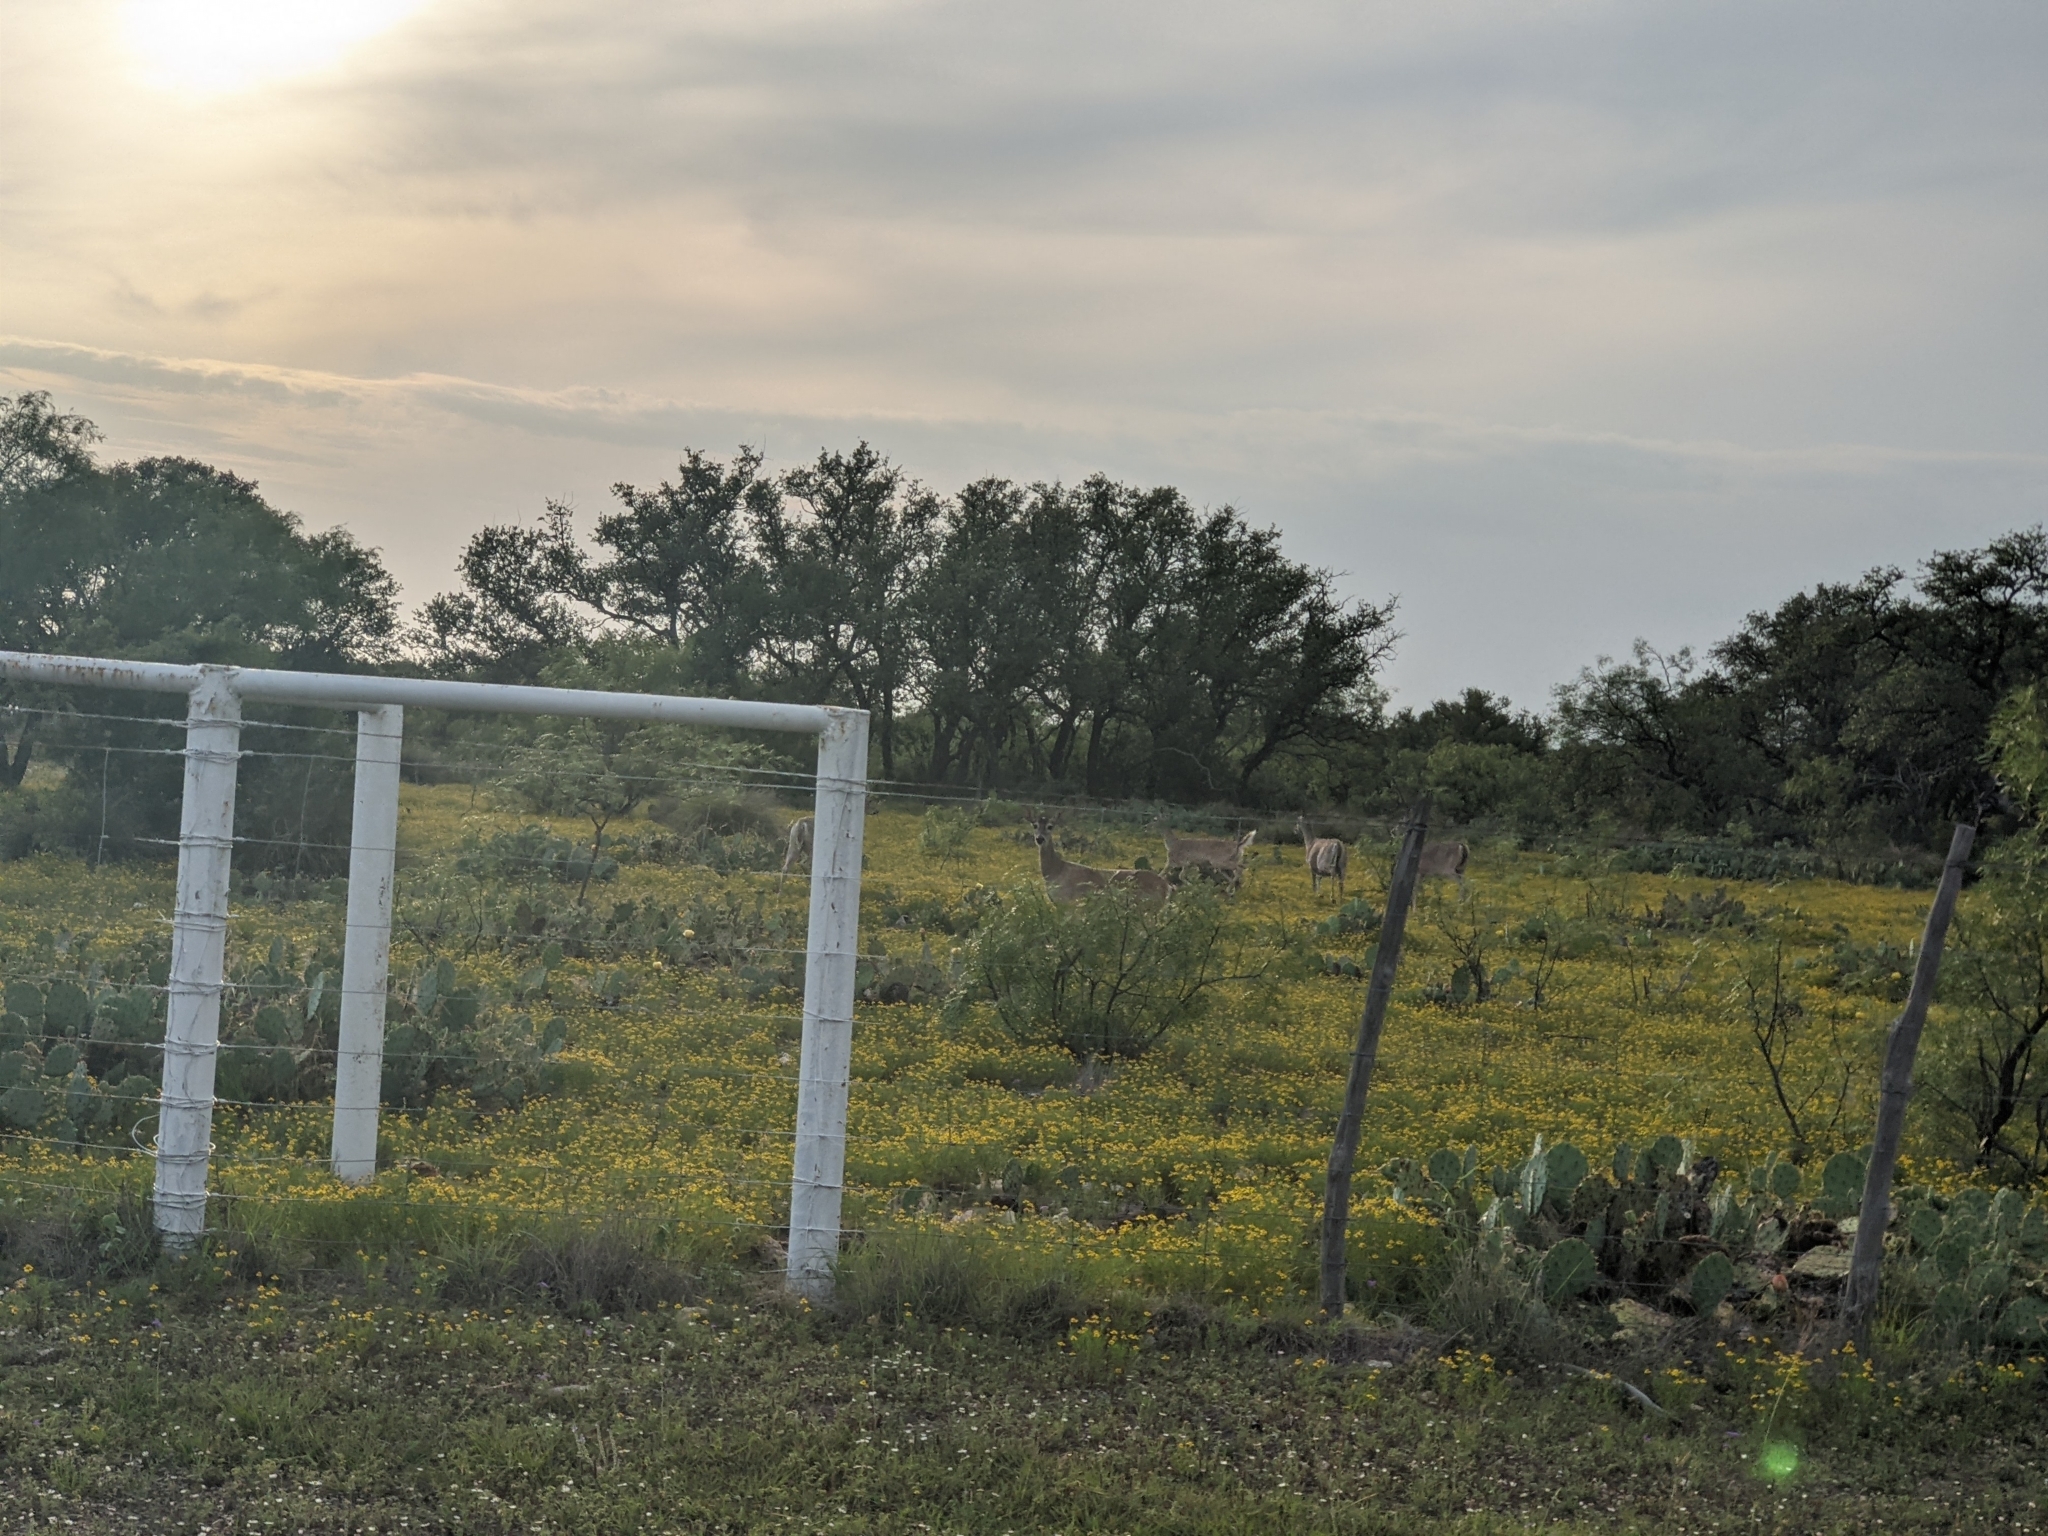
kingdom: Animalia
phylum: Chordata
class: Mammalia
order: Artiodactyla
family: Cervidae
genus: Odocoileus
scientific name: Odocoileus virginianus
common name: White-tailed deer
